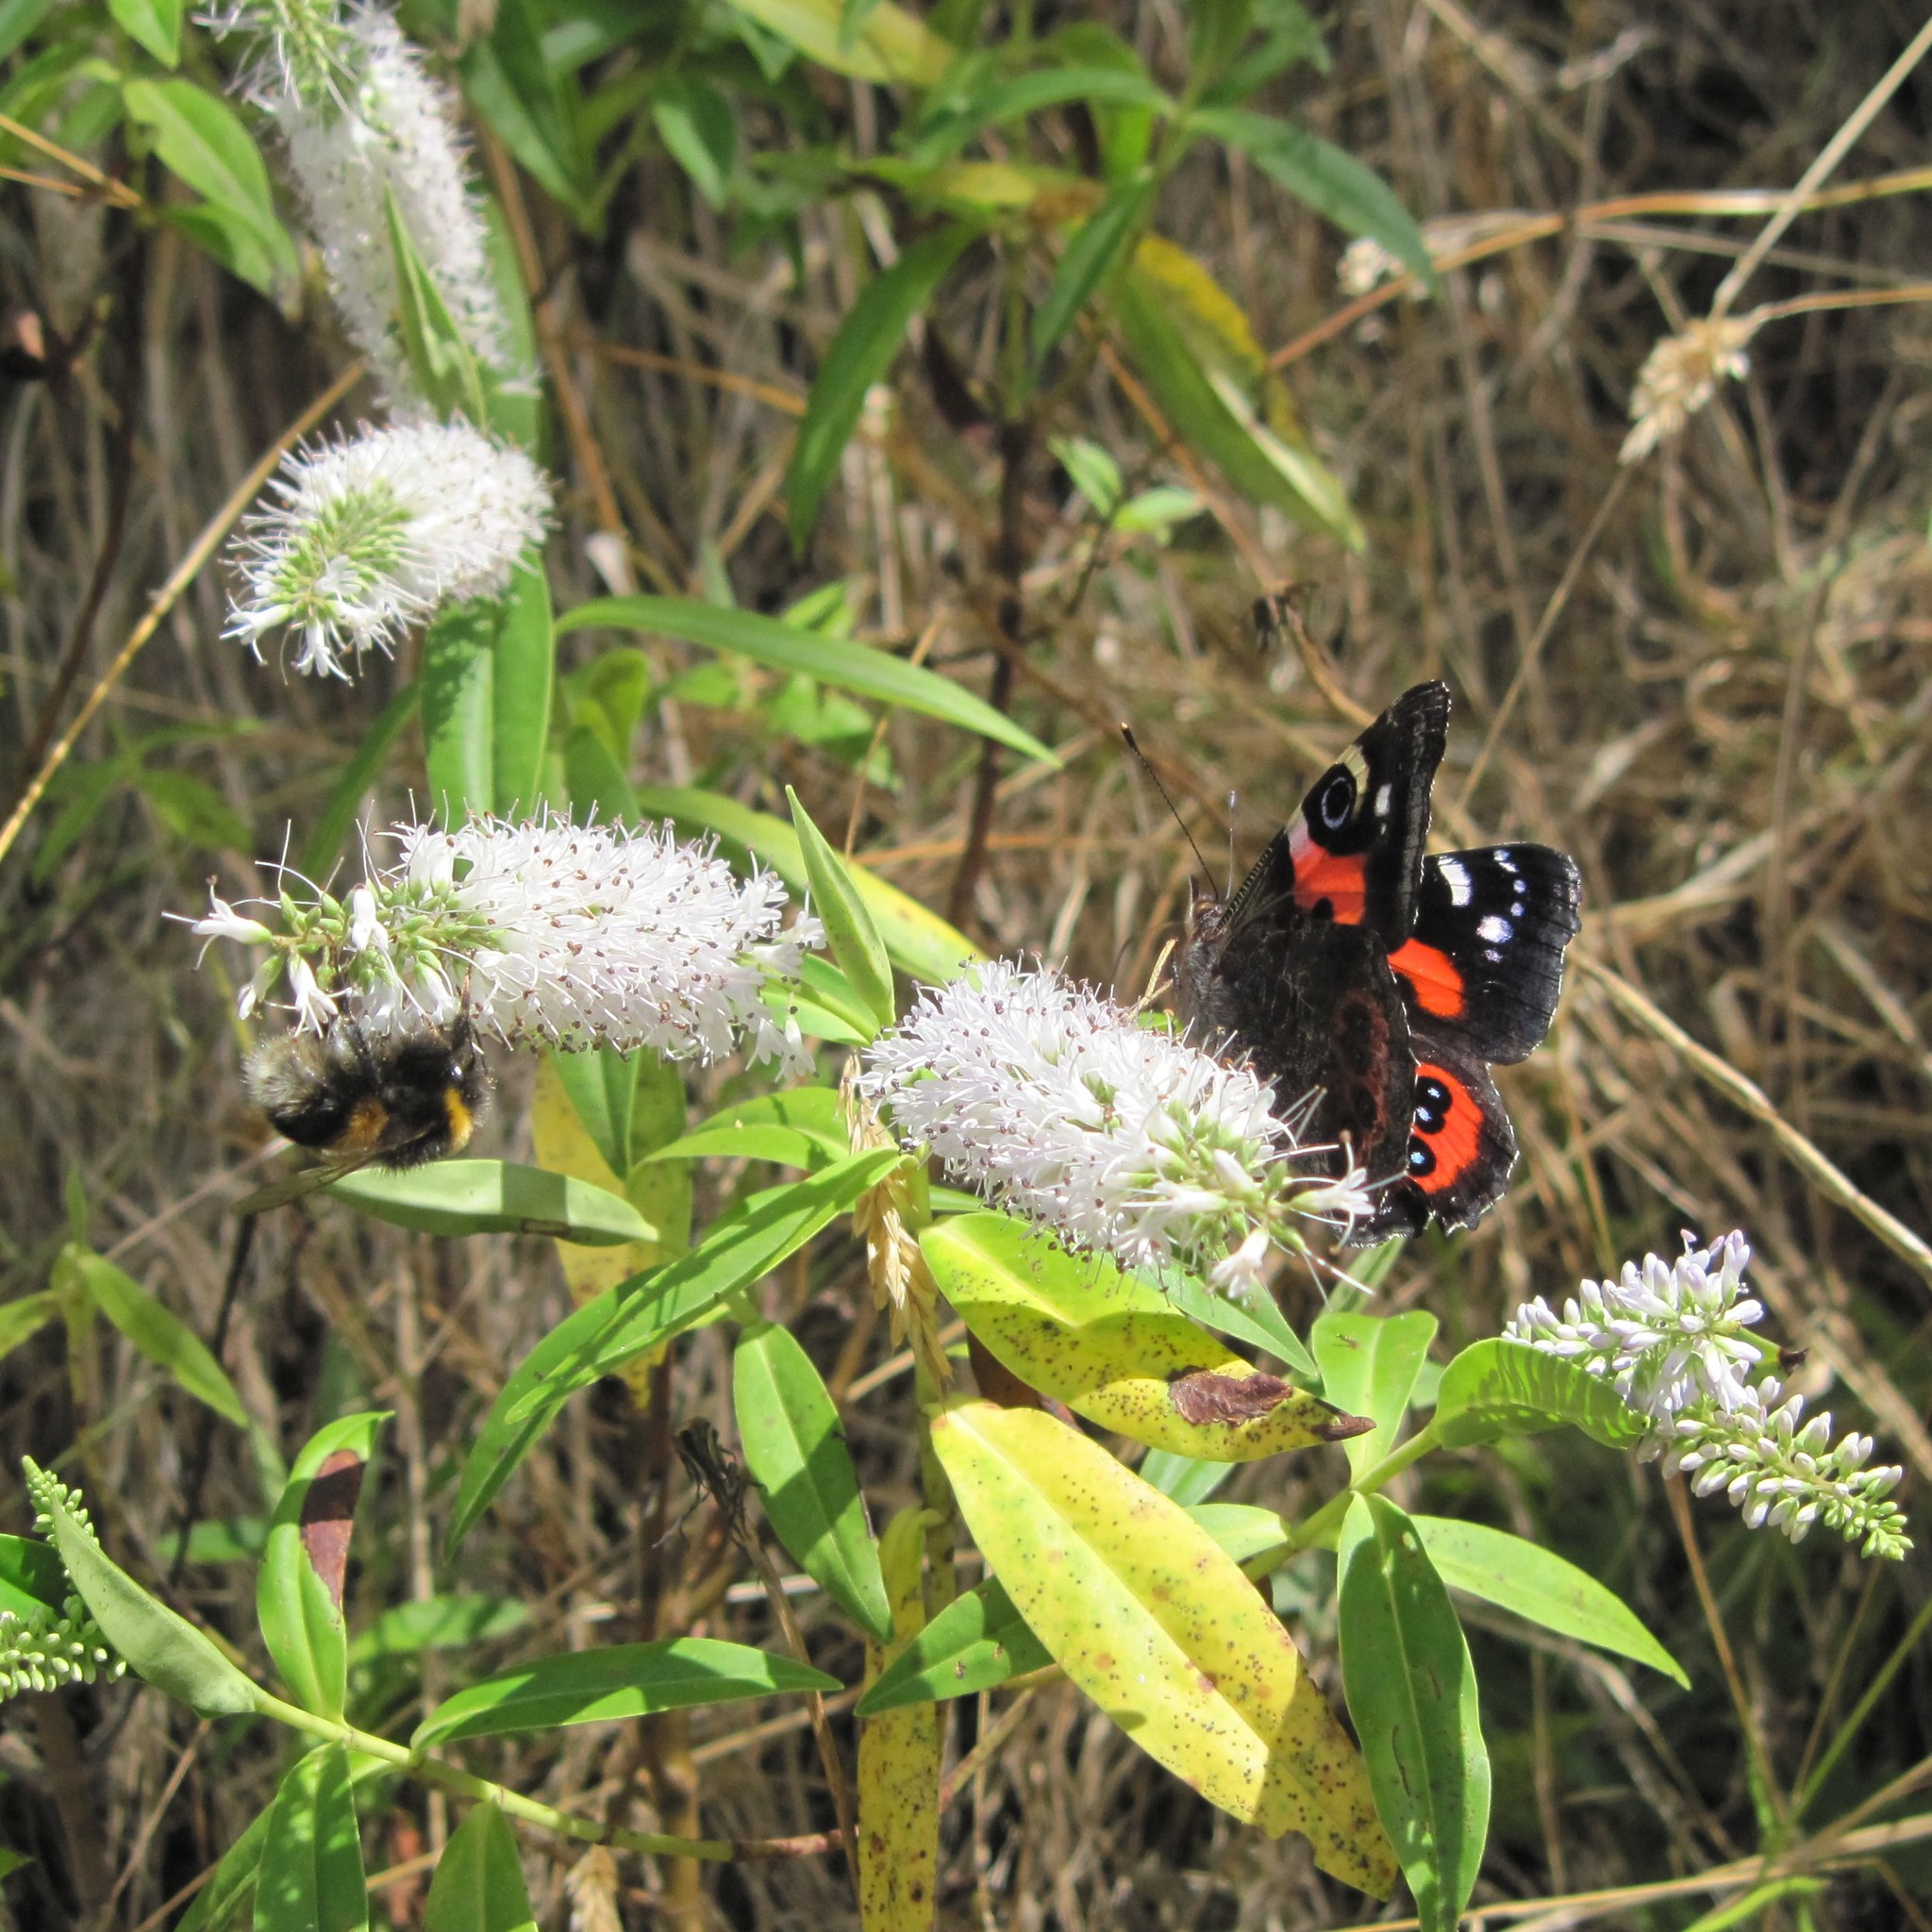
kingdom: Animalia
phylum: Arthropoda
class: Insecta
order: Lepidoptera
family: Nymphalidae
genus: Vanessa
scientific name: Vanessa gonerilla
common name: New zealand red admiral
